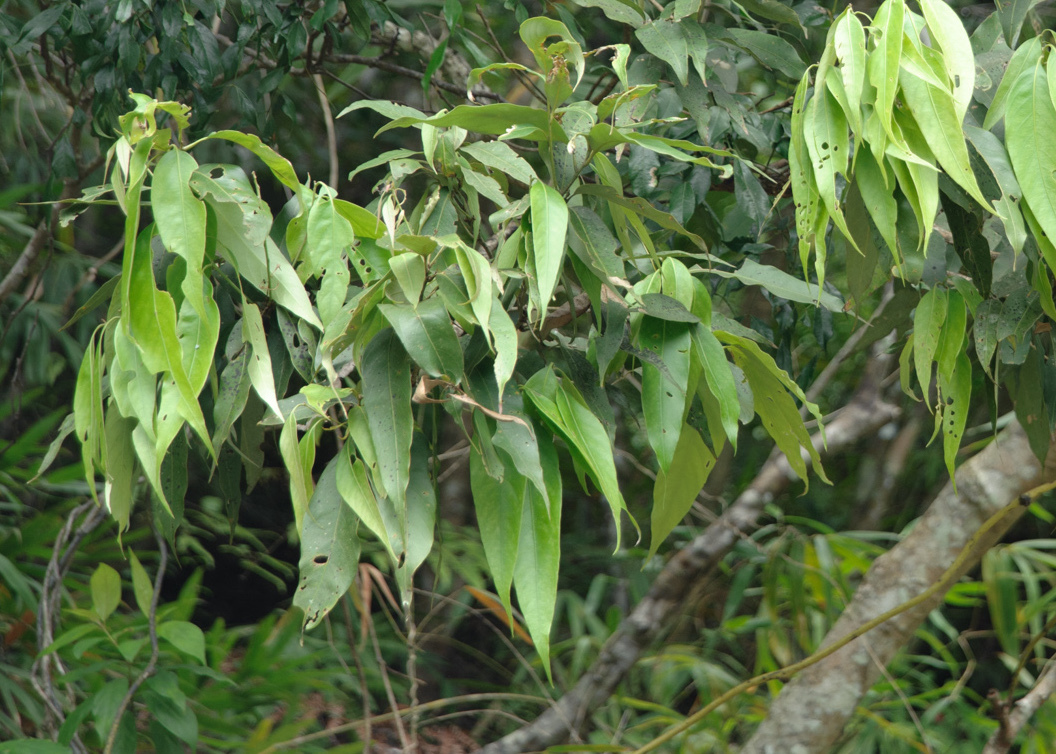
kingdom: Plantae
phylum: Tracheophyta
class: Magnoliopsida
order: Fagales
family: Fagaceae
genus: Lithocarpus
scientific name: Lithocarpus shinsuiensis
